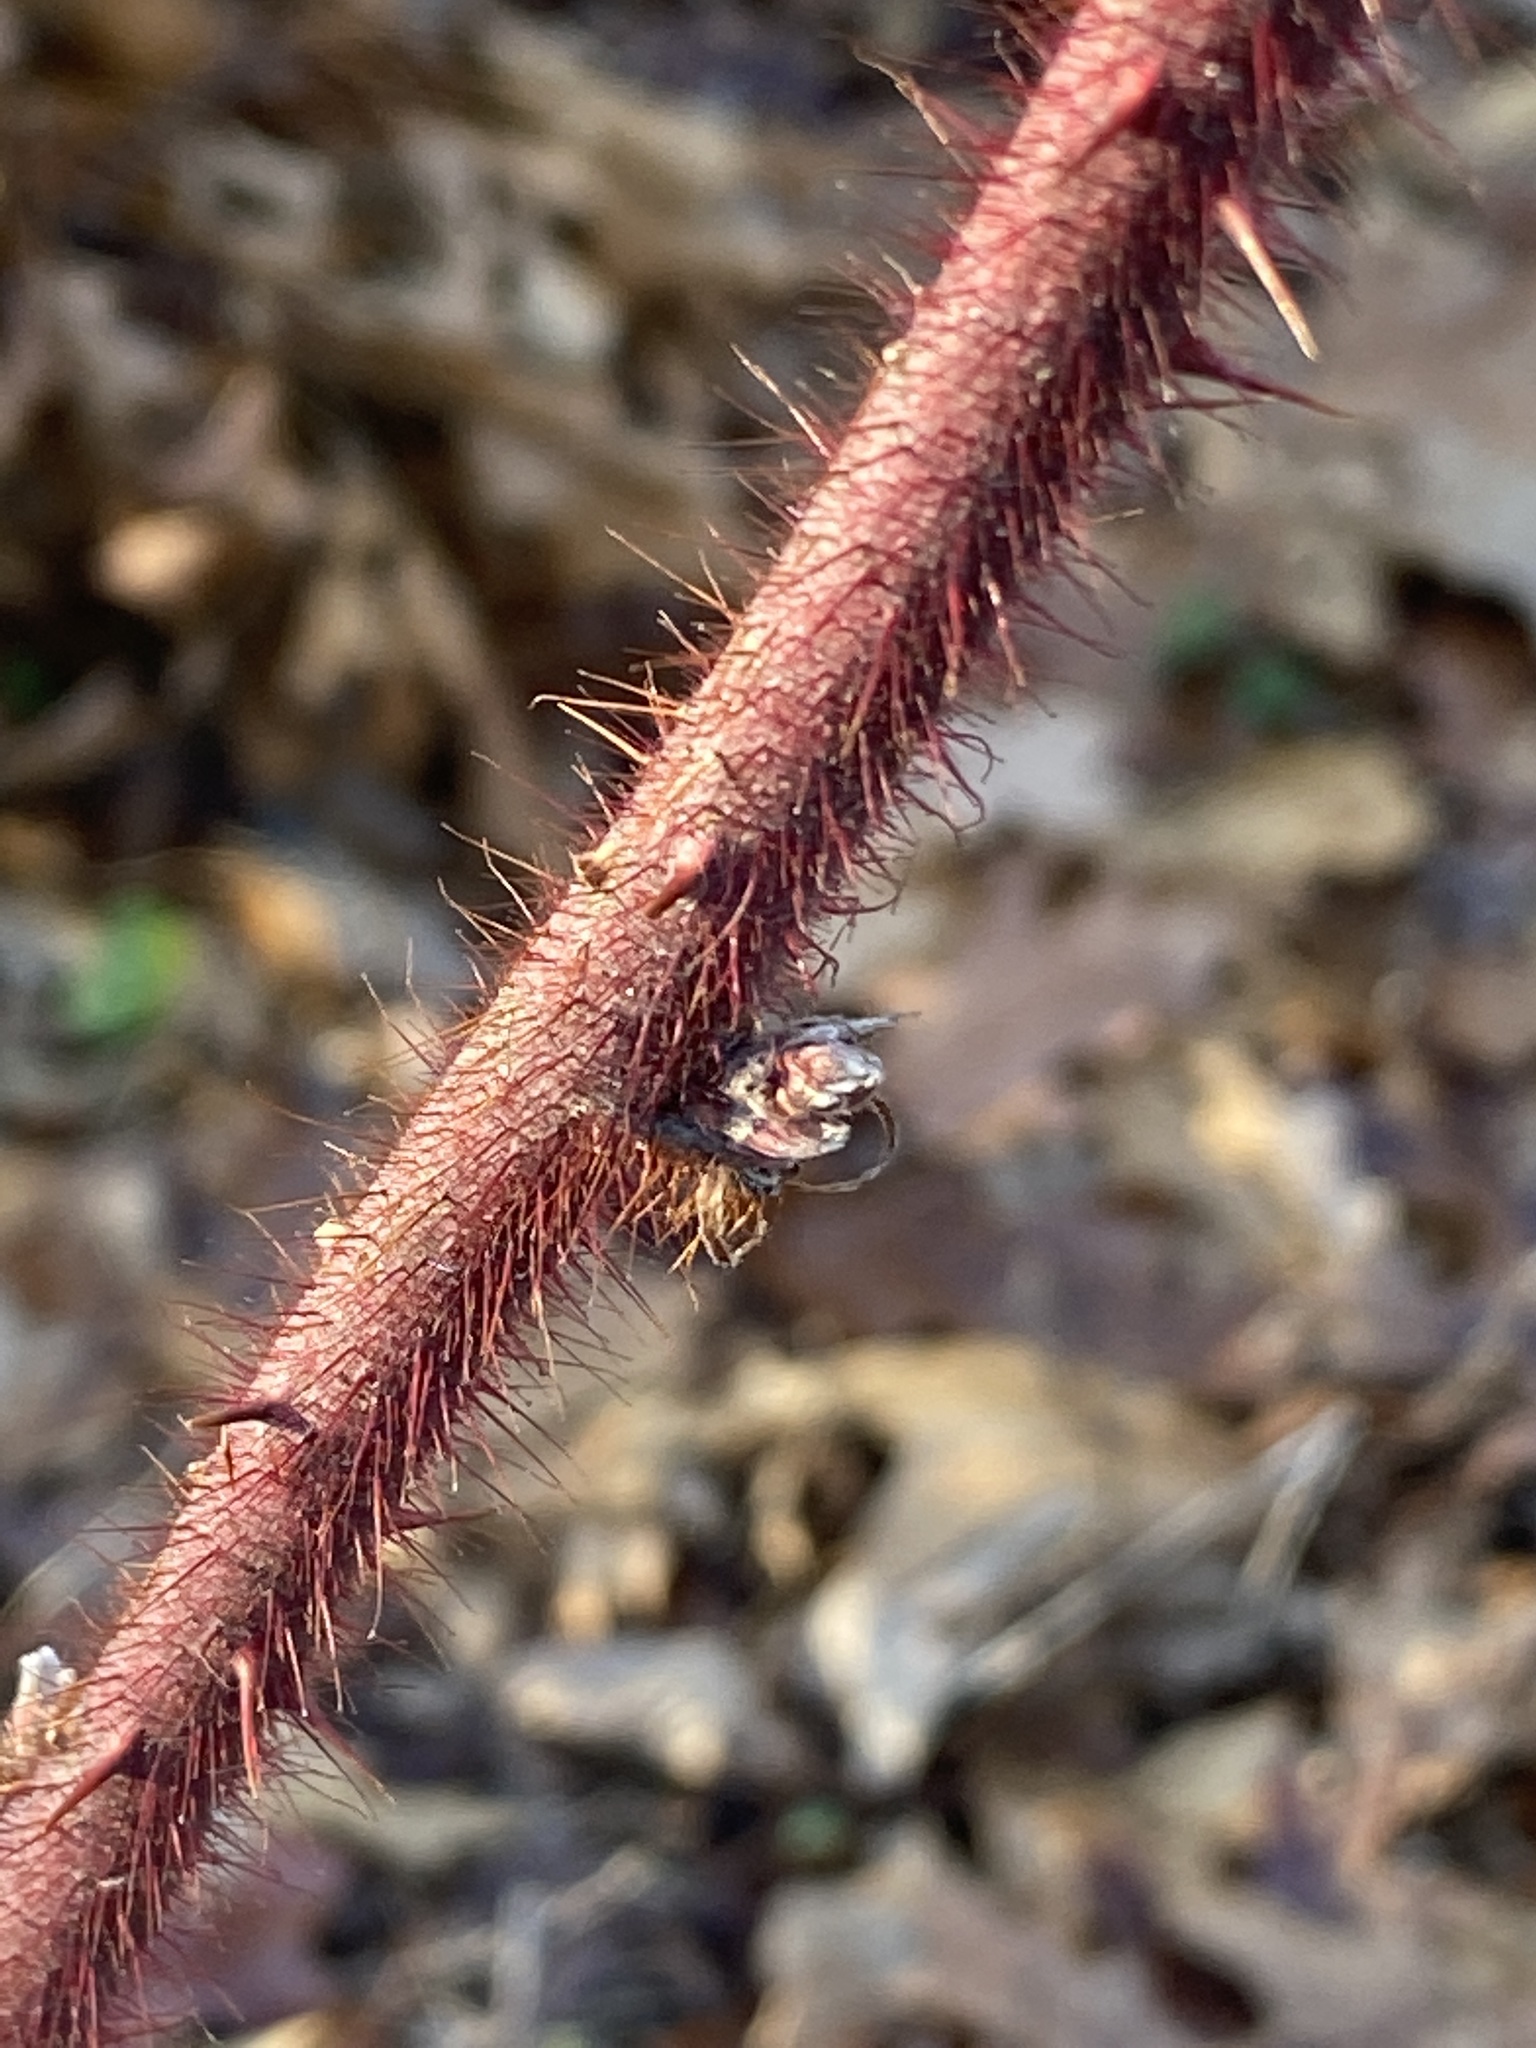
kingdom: Plantae
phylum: Tracheophyta
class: Magnoliopsida
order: Rosales
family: Rosaceae
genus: Rubus
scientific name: Rubus phoenicolasius
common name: Japanese wineberry
